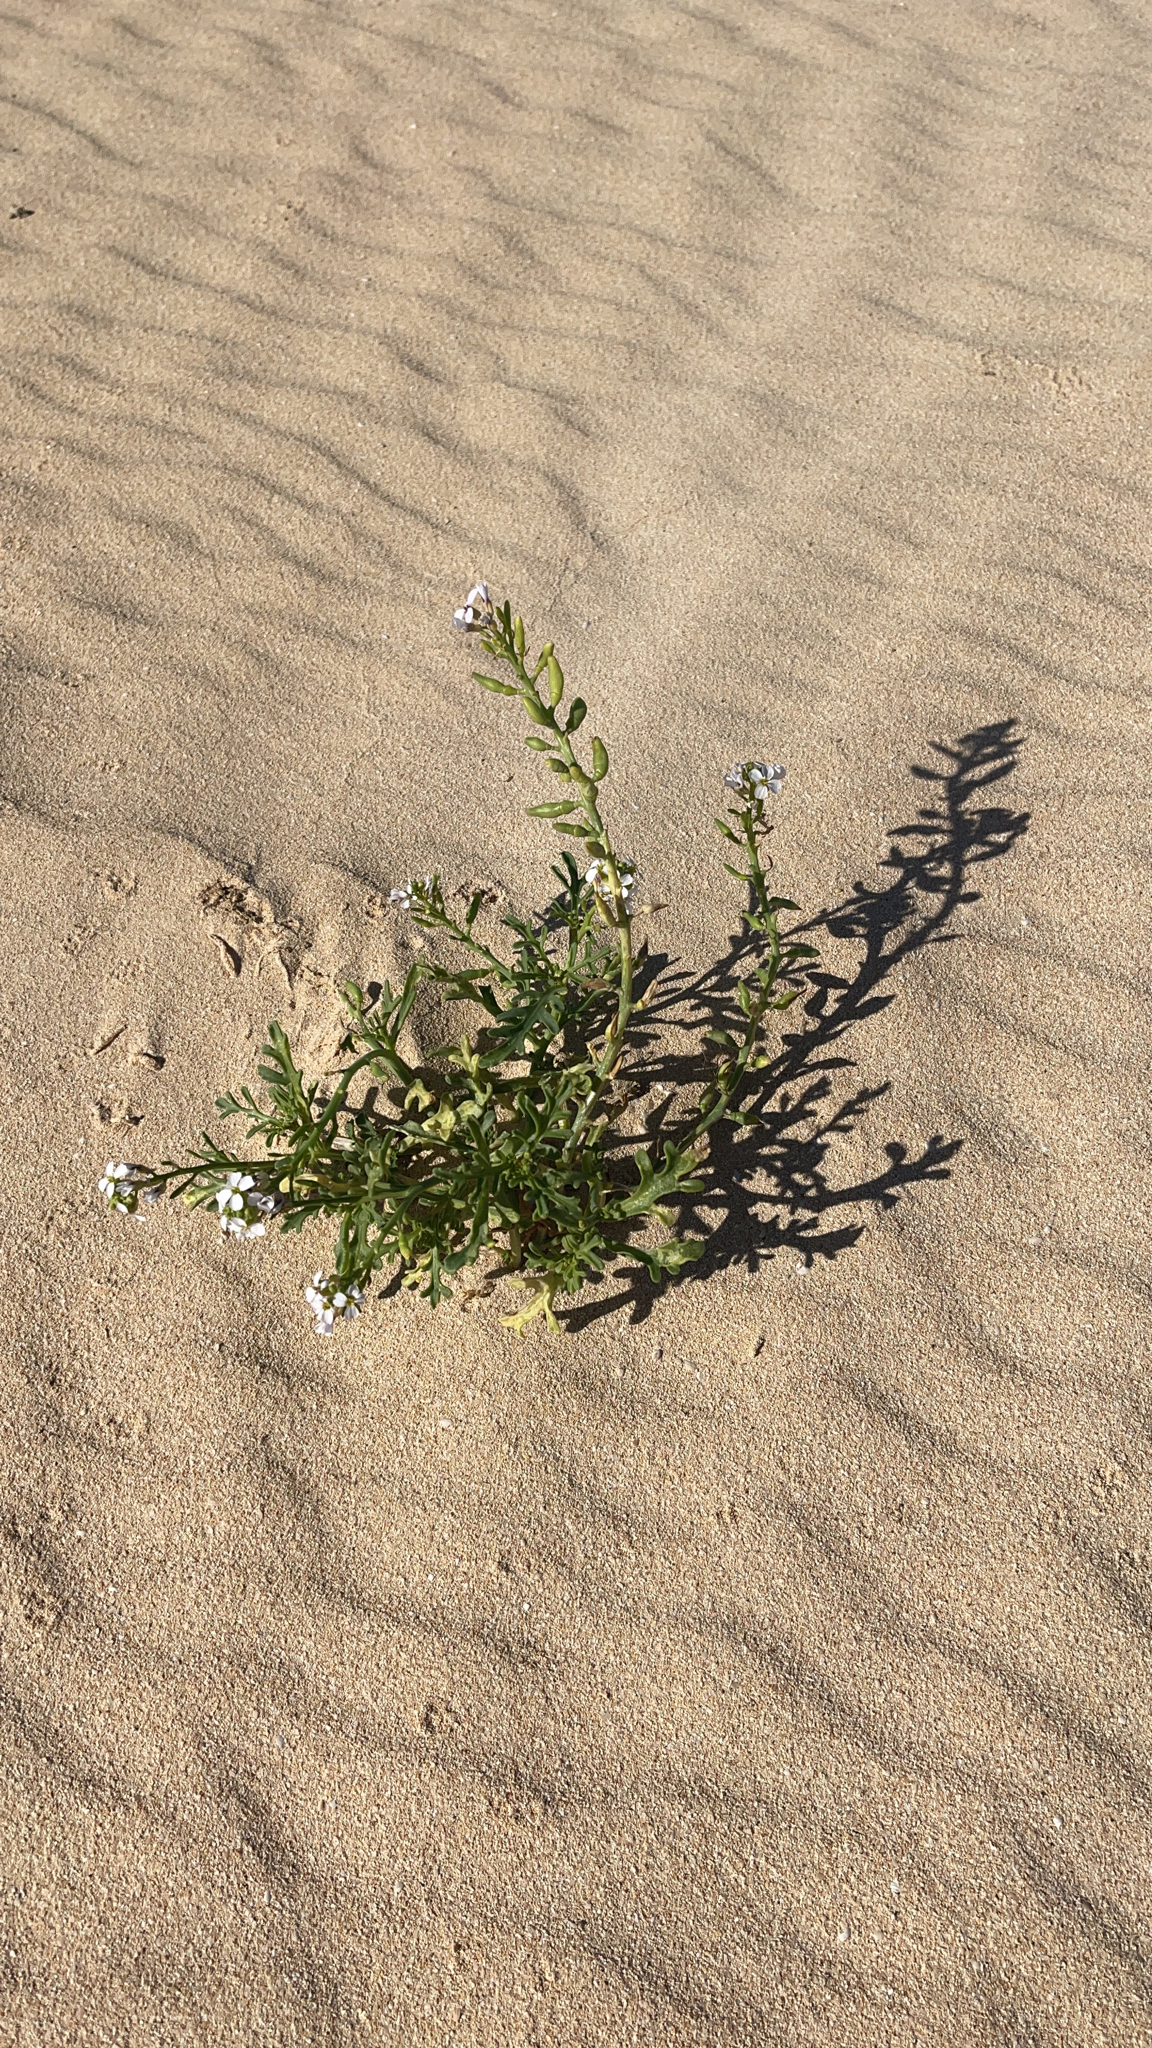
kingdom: Plantae
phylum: Tracheophyta
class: Magnoliopsida
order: Brassicales
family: Brassicaceae
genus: Cakile
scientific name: Cakile maritima
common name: Sea rocket
